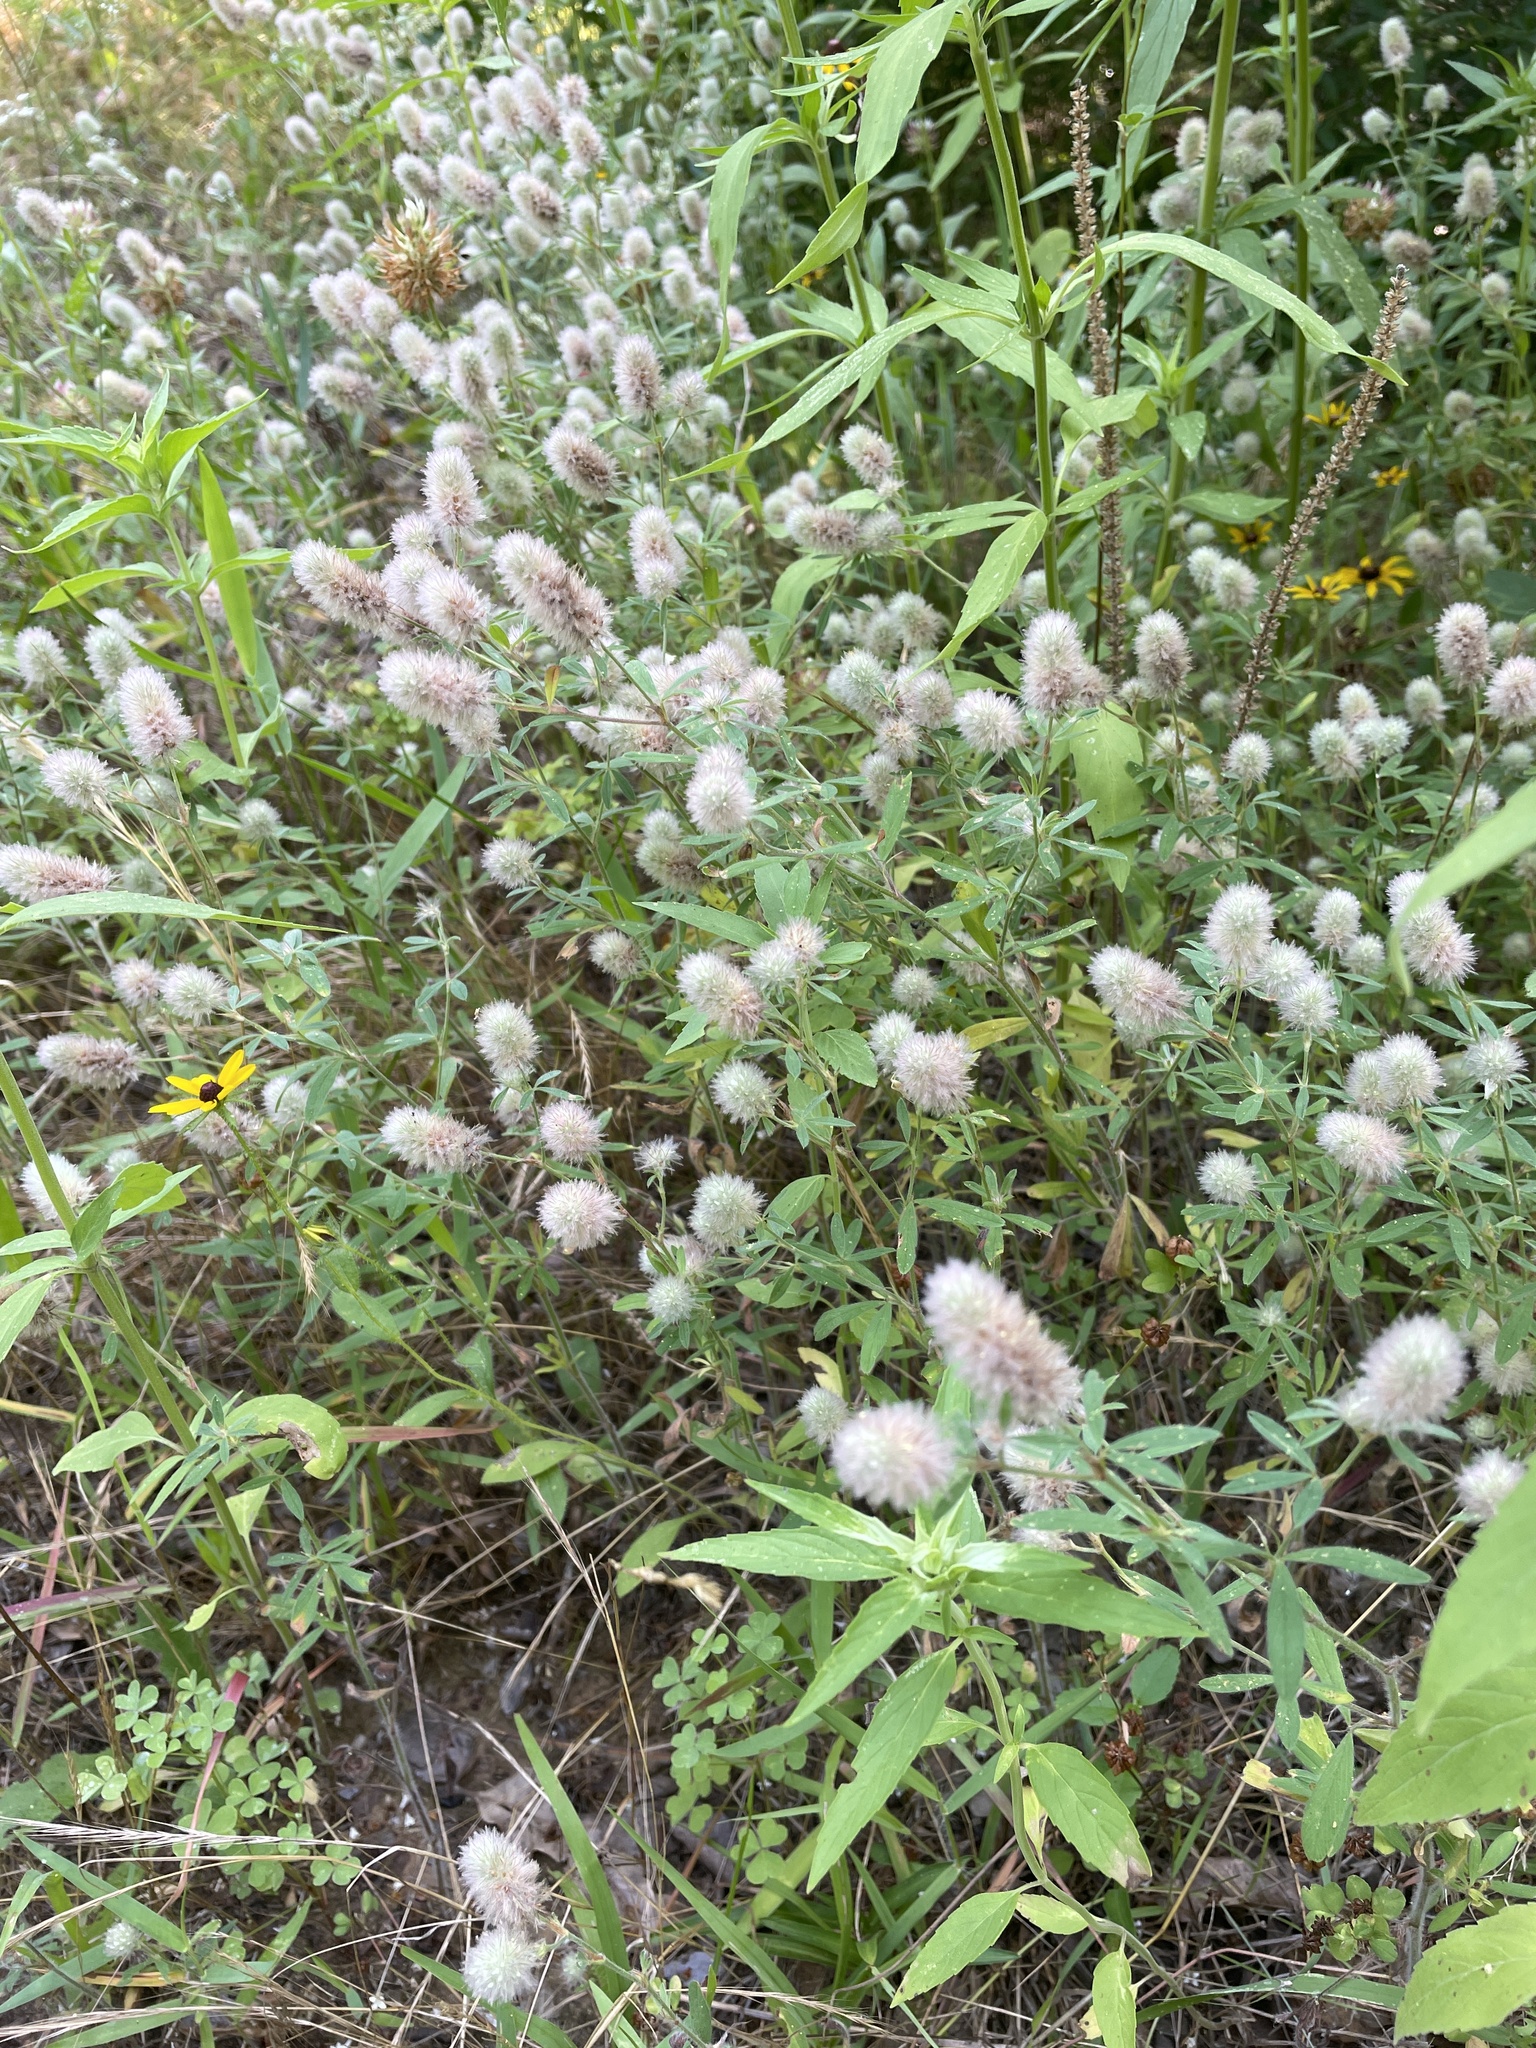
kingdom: Plantae
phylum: Tracheophyta
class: Magnoliopsida
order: Fabales
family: Fabaceae
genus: Trifolium
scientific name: Trifolium arvense
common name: Hare's-foot clover
